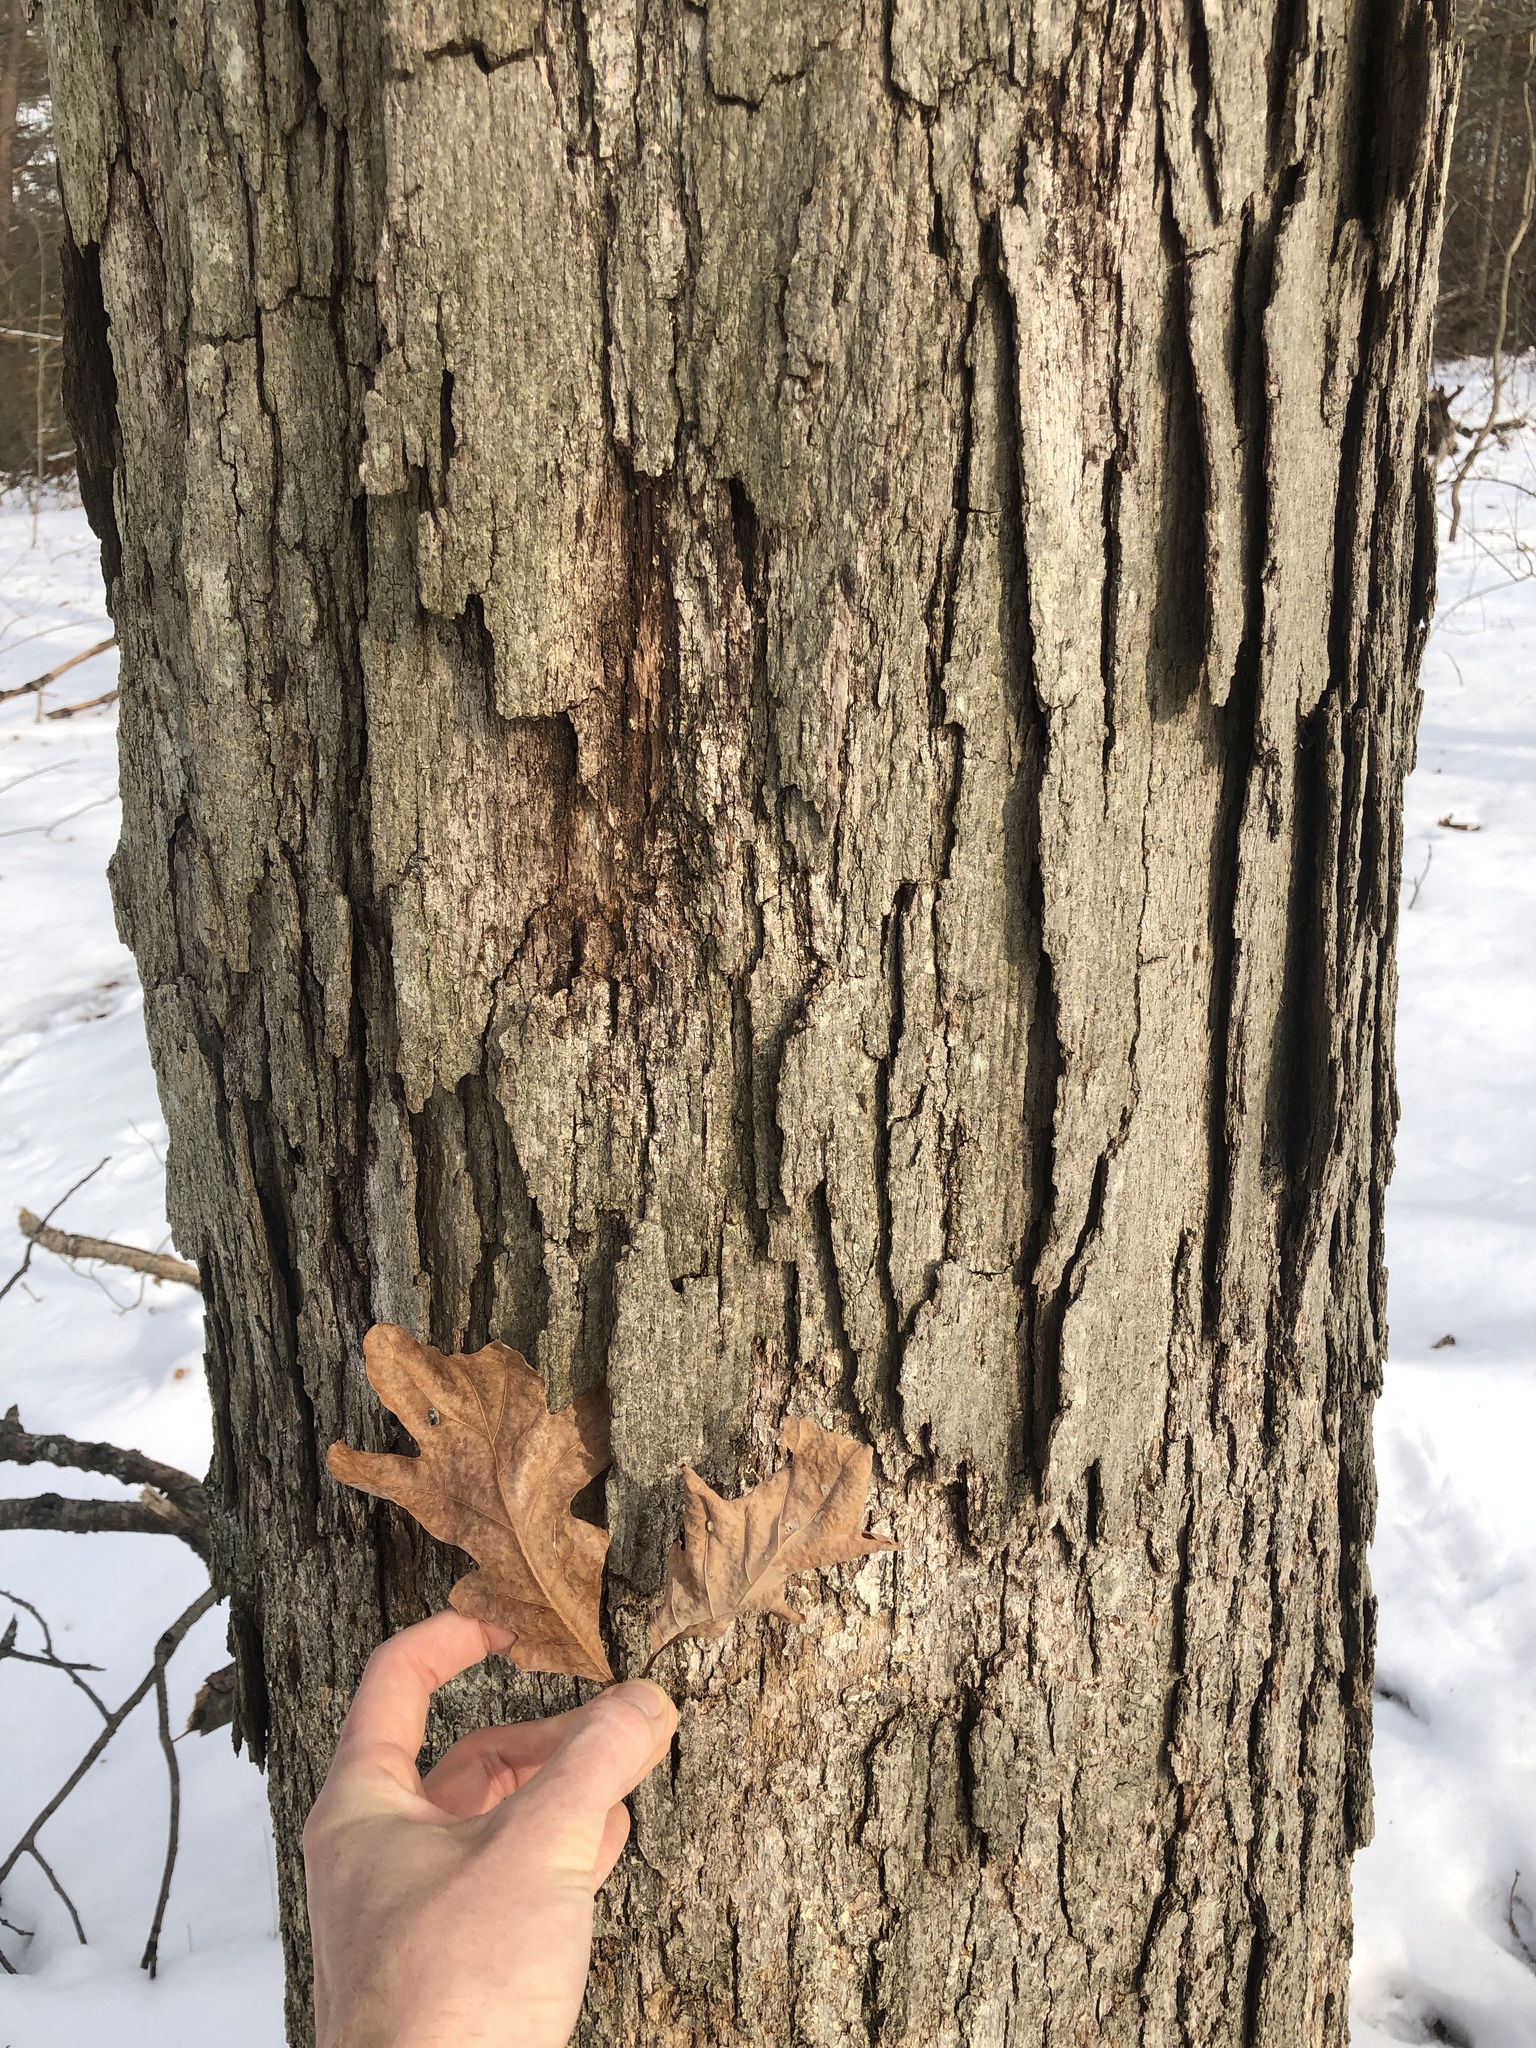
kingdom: Plantae
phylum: Tracheophyta
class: Magnoliopsida
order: Fagales
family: Fagaceae
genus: Quercus
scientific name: Quercus alba
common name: White oak
